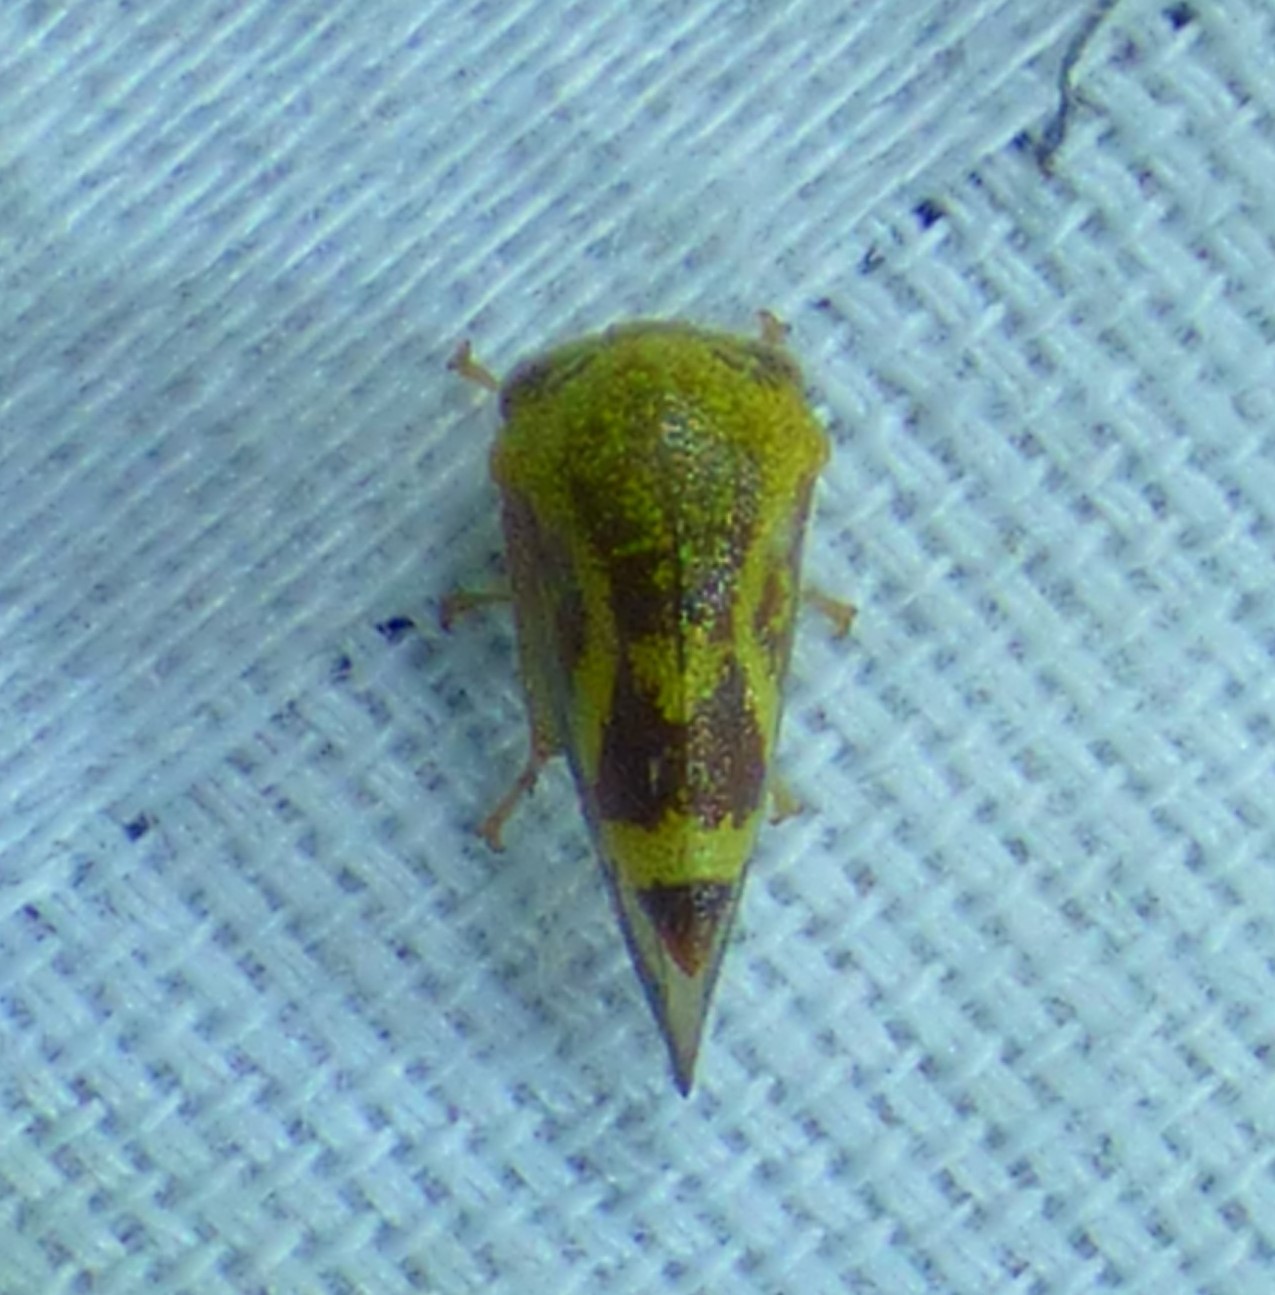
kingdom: Animalia
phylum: Arthropoda
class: Insecta
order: Hemiptera
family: Membracidae
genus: Ophiderma
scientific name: Ophiderma evelyna
